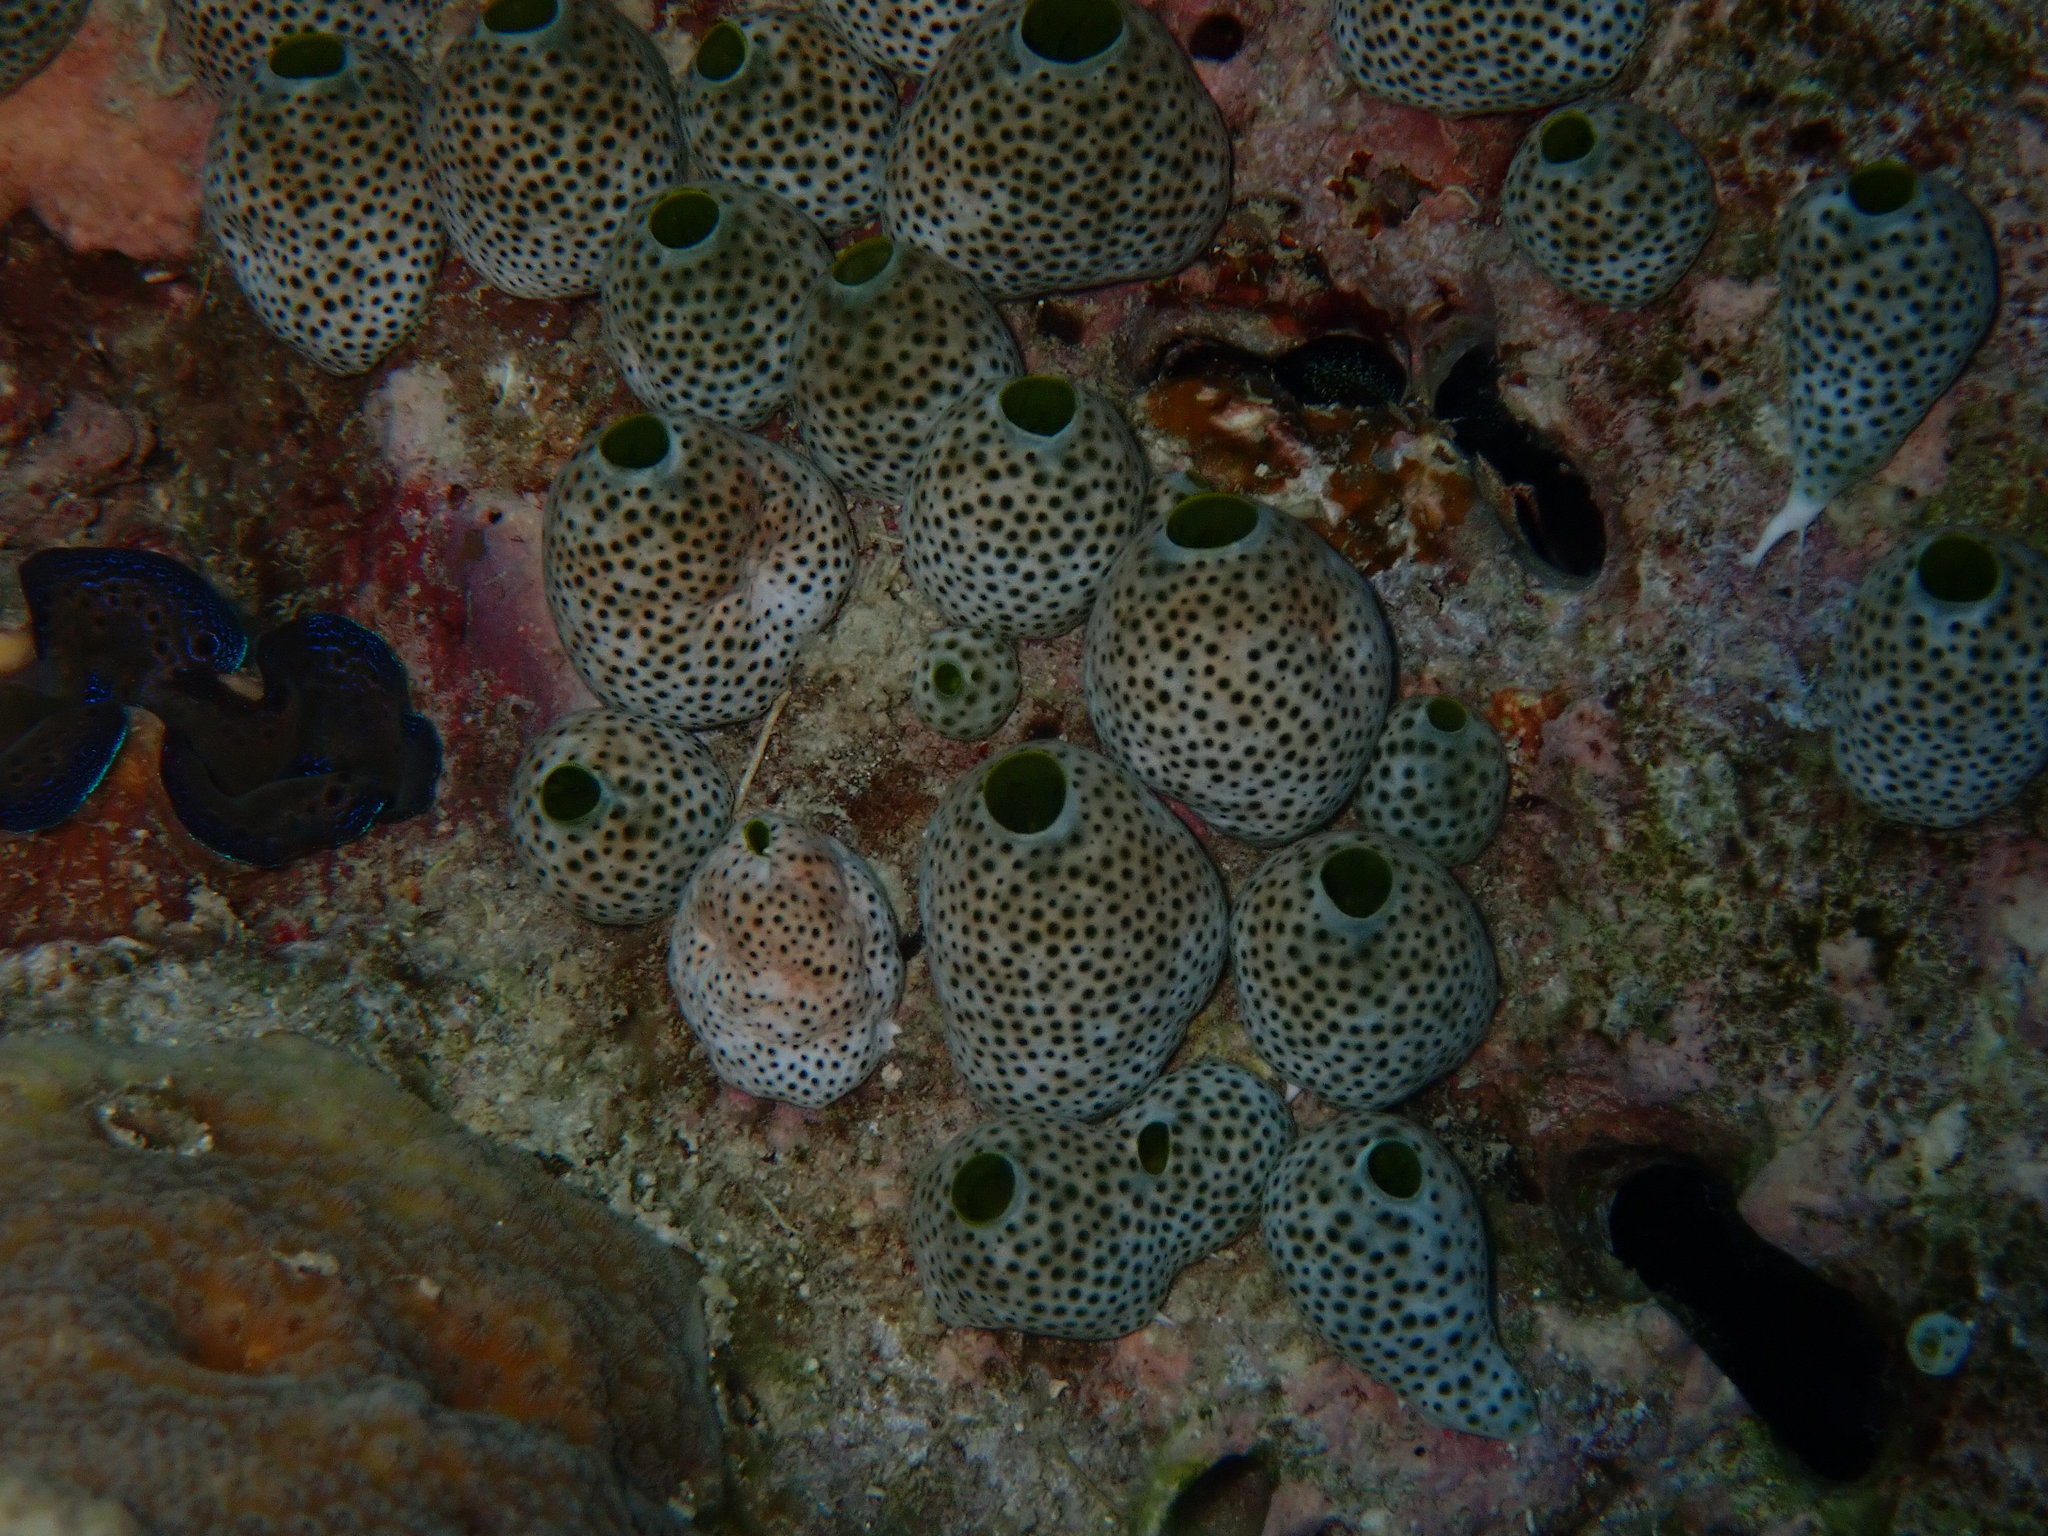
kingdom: Animalia
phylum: Chordata
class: Ascidiacea
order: Aplousobranchia
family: Didemnidae
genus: Didemnum
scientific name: Didemnum molle
